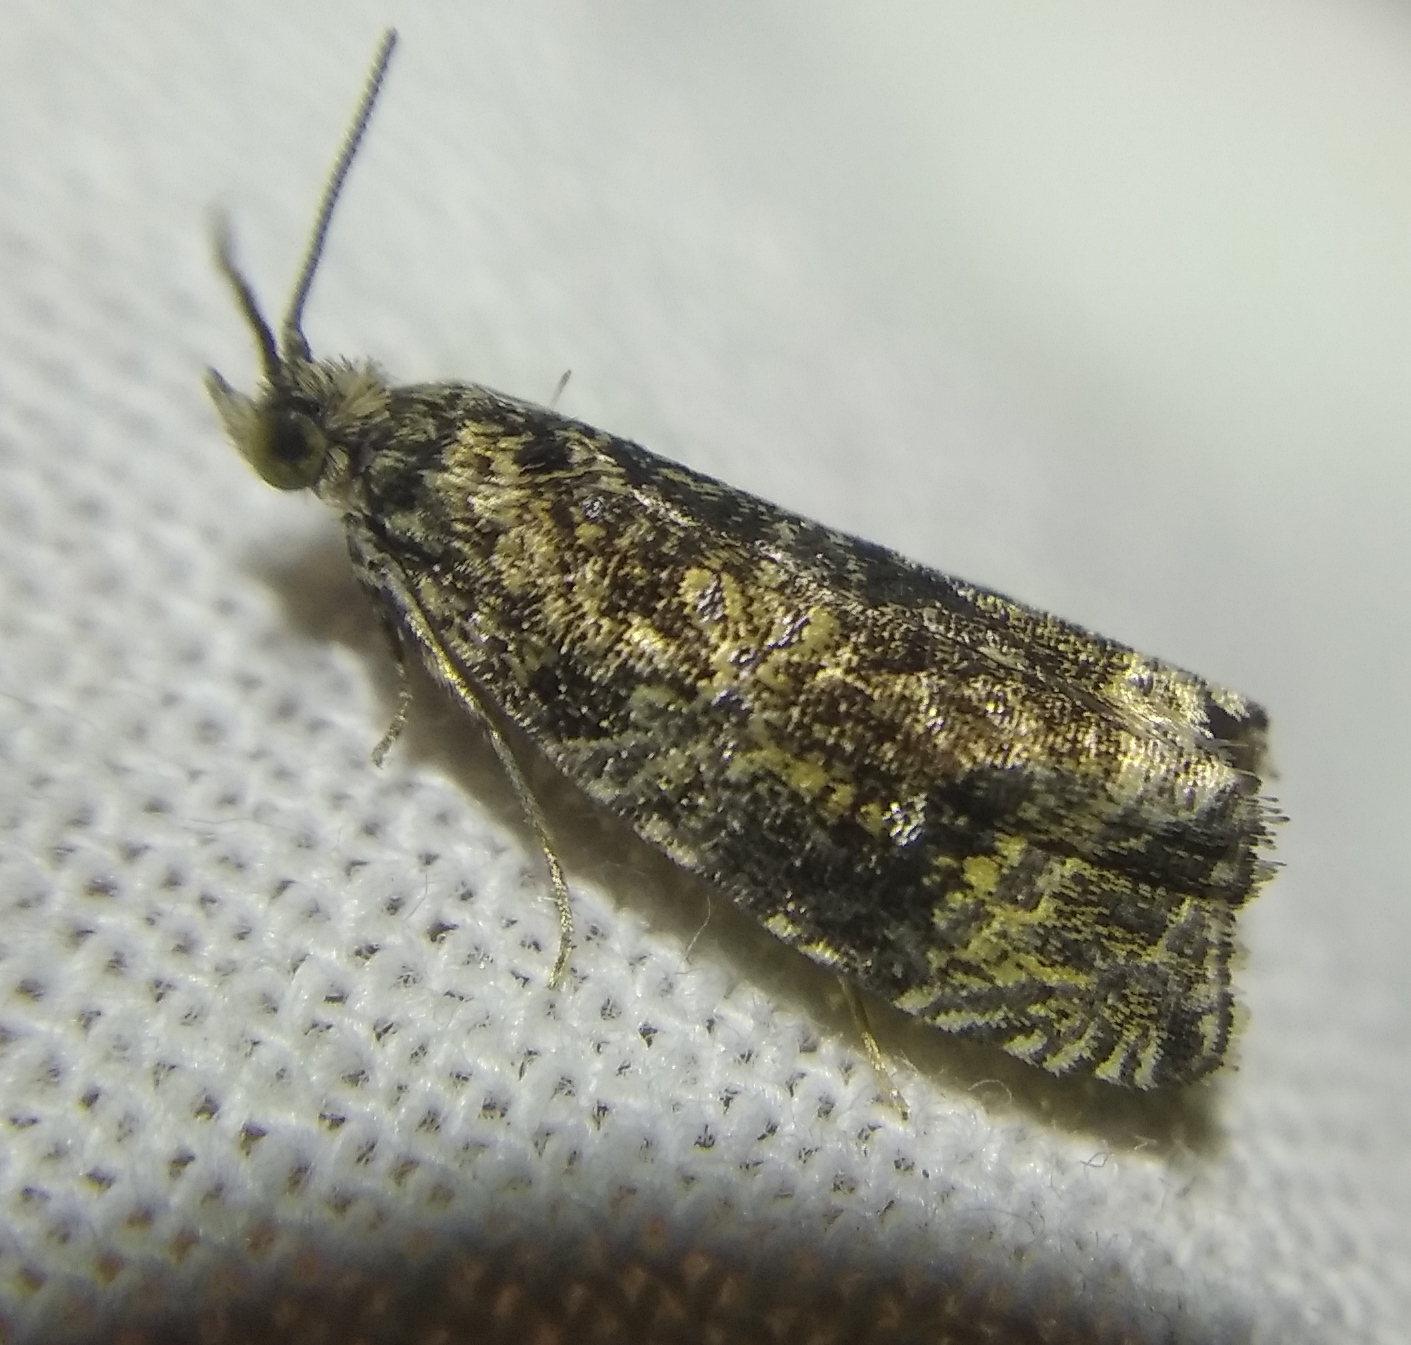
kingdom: Animalia
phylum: Arthropoda
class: Insecta
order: Lepidoptera
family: Tortricidae
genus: Syricoris
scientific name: Syricoris lacunana
